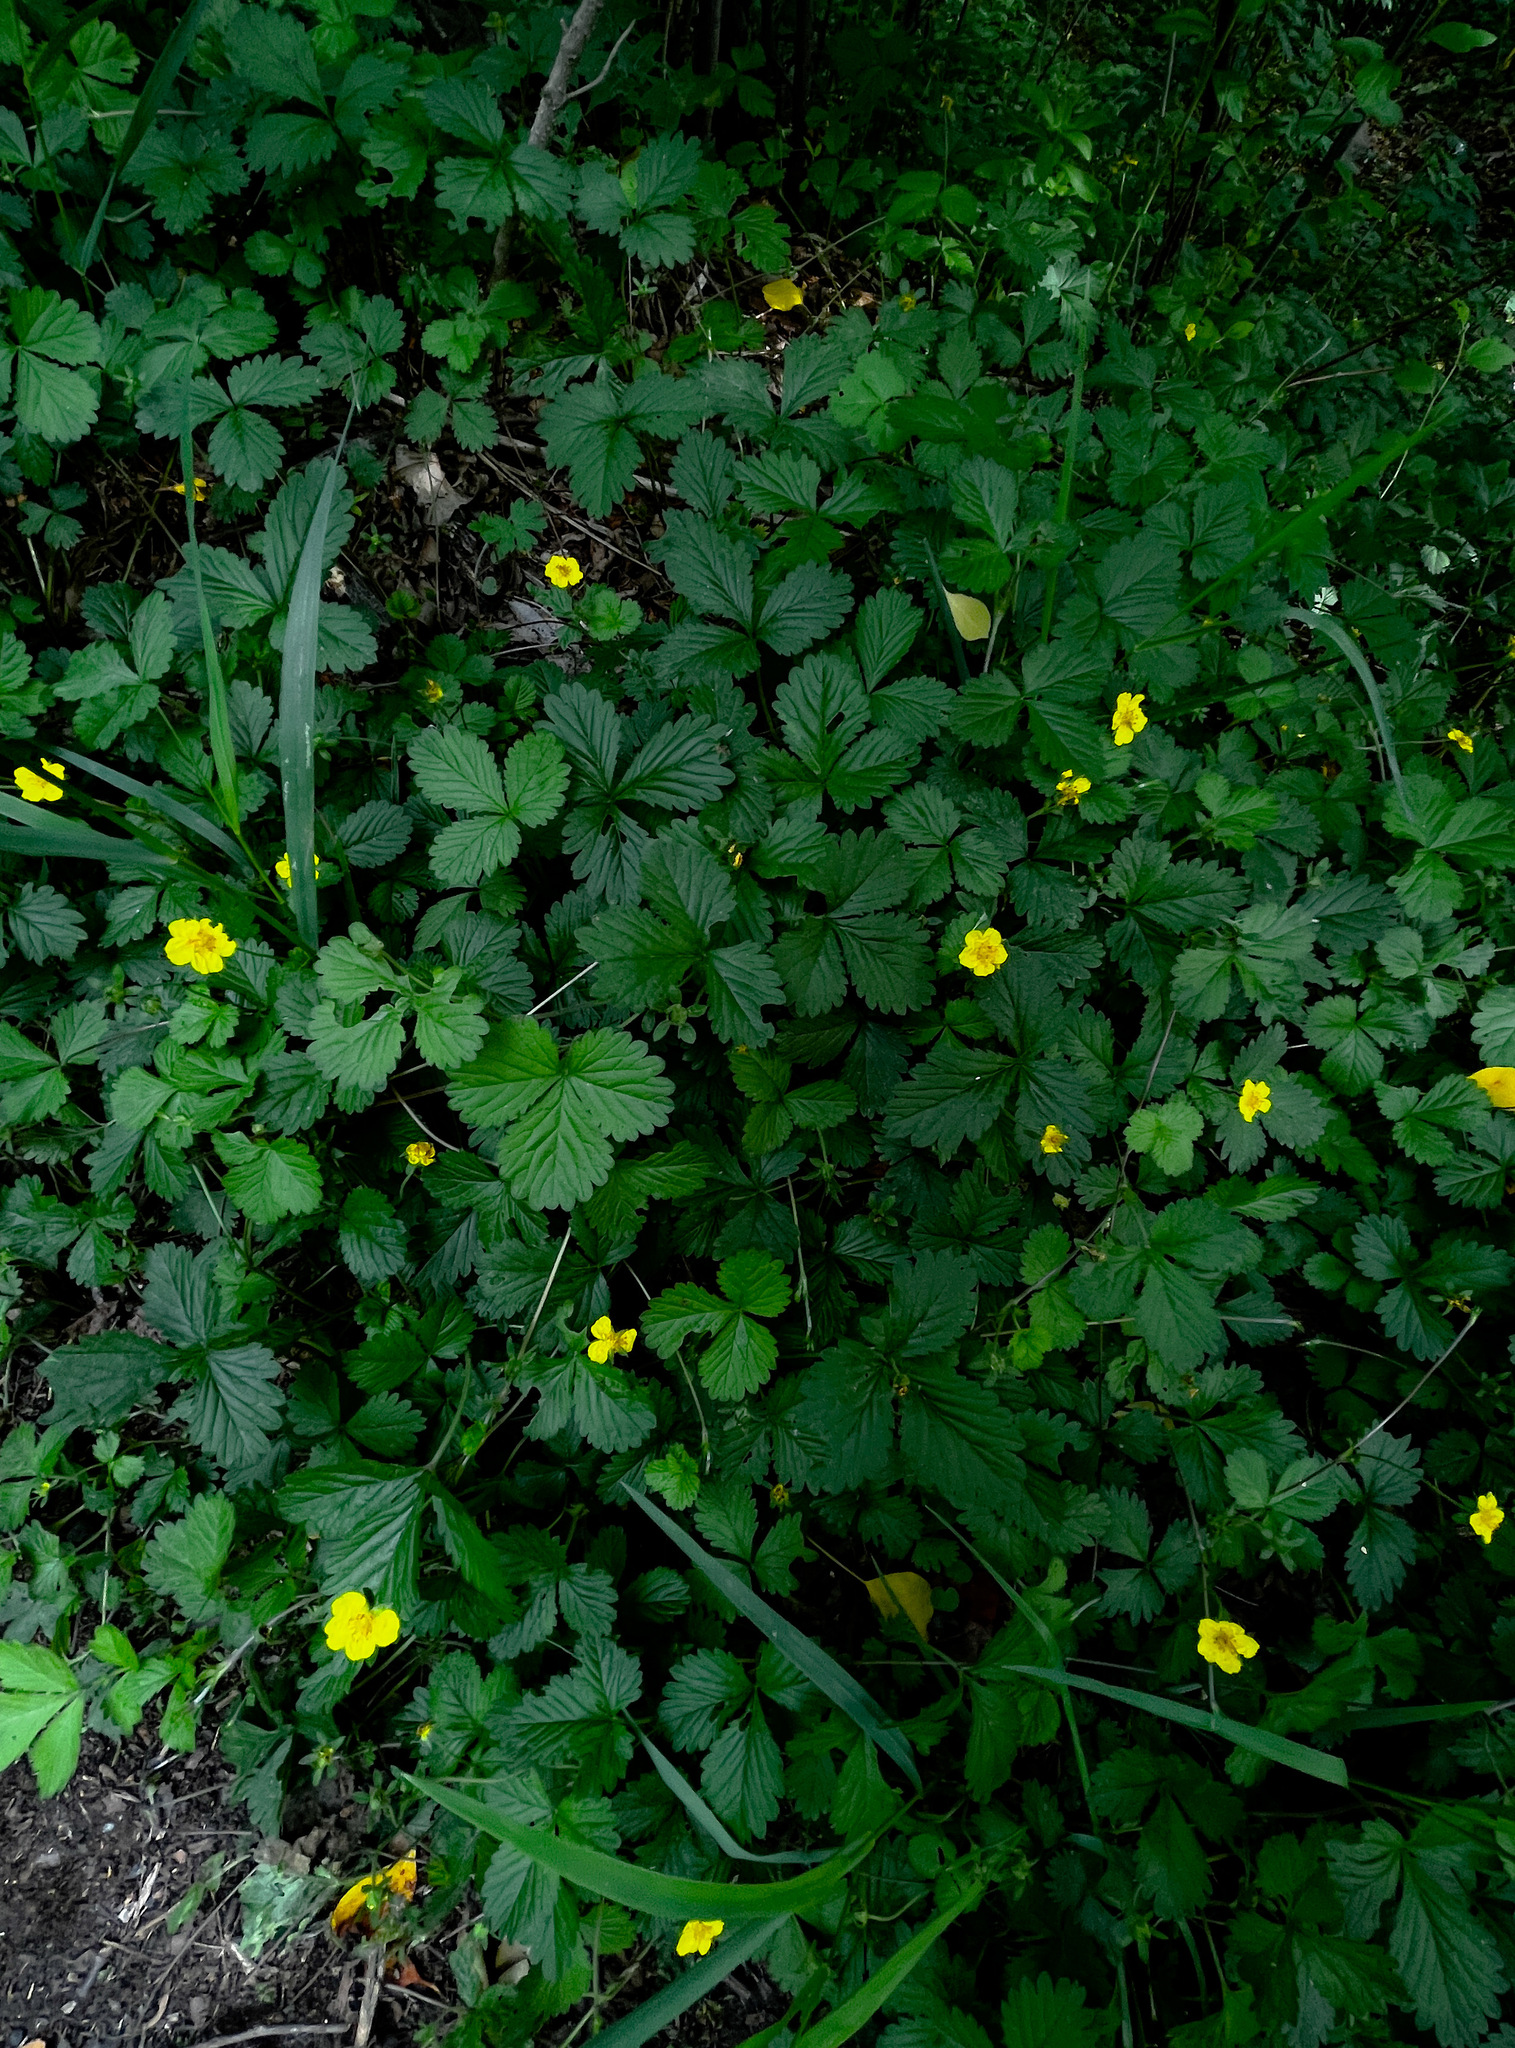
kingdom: Plantae
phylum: Tracheophyta
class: Magnoliopsida
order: Rosales
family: Rosaceae
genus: Potentilla
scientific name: Potentilla indica
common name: Yellow-flowered strawberry
